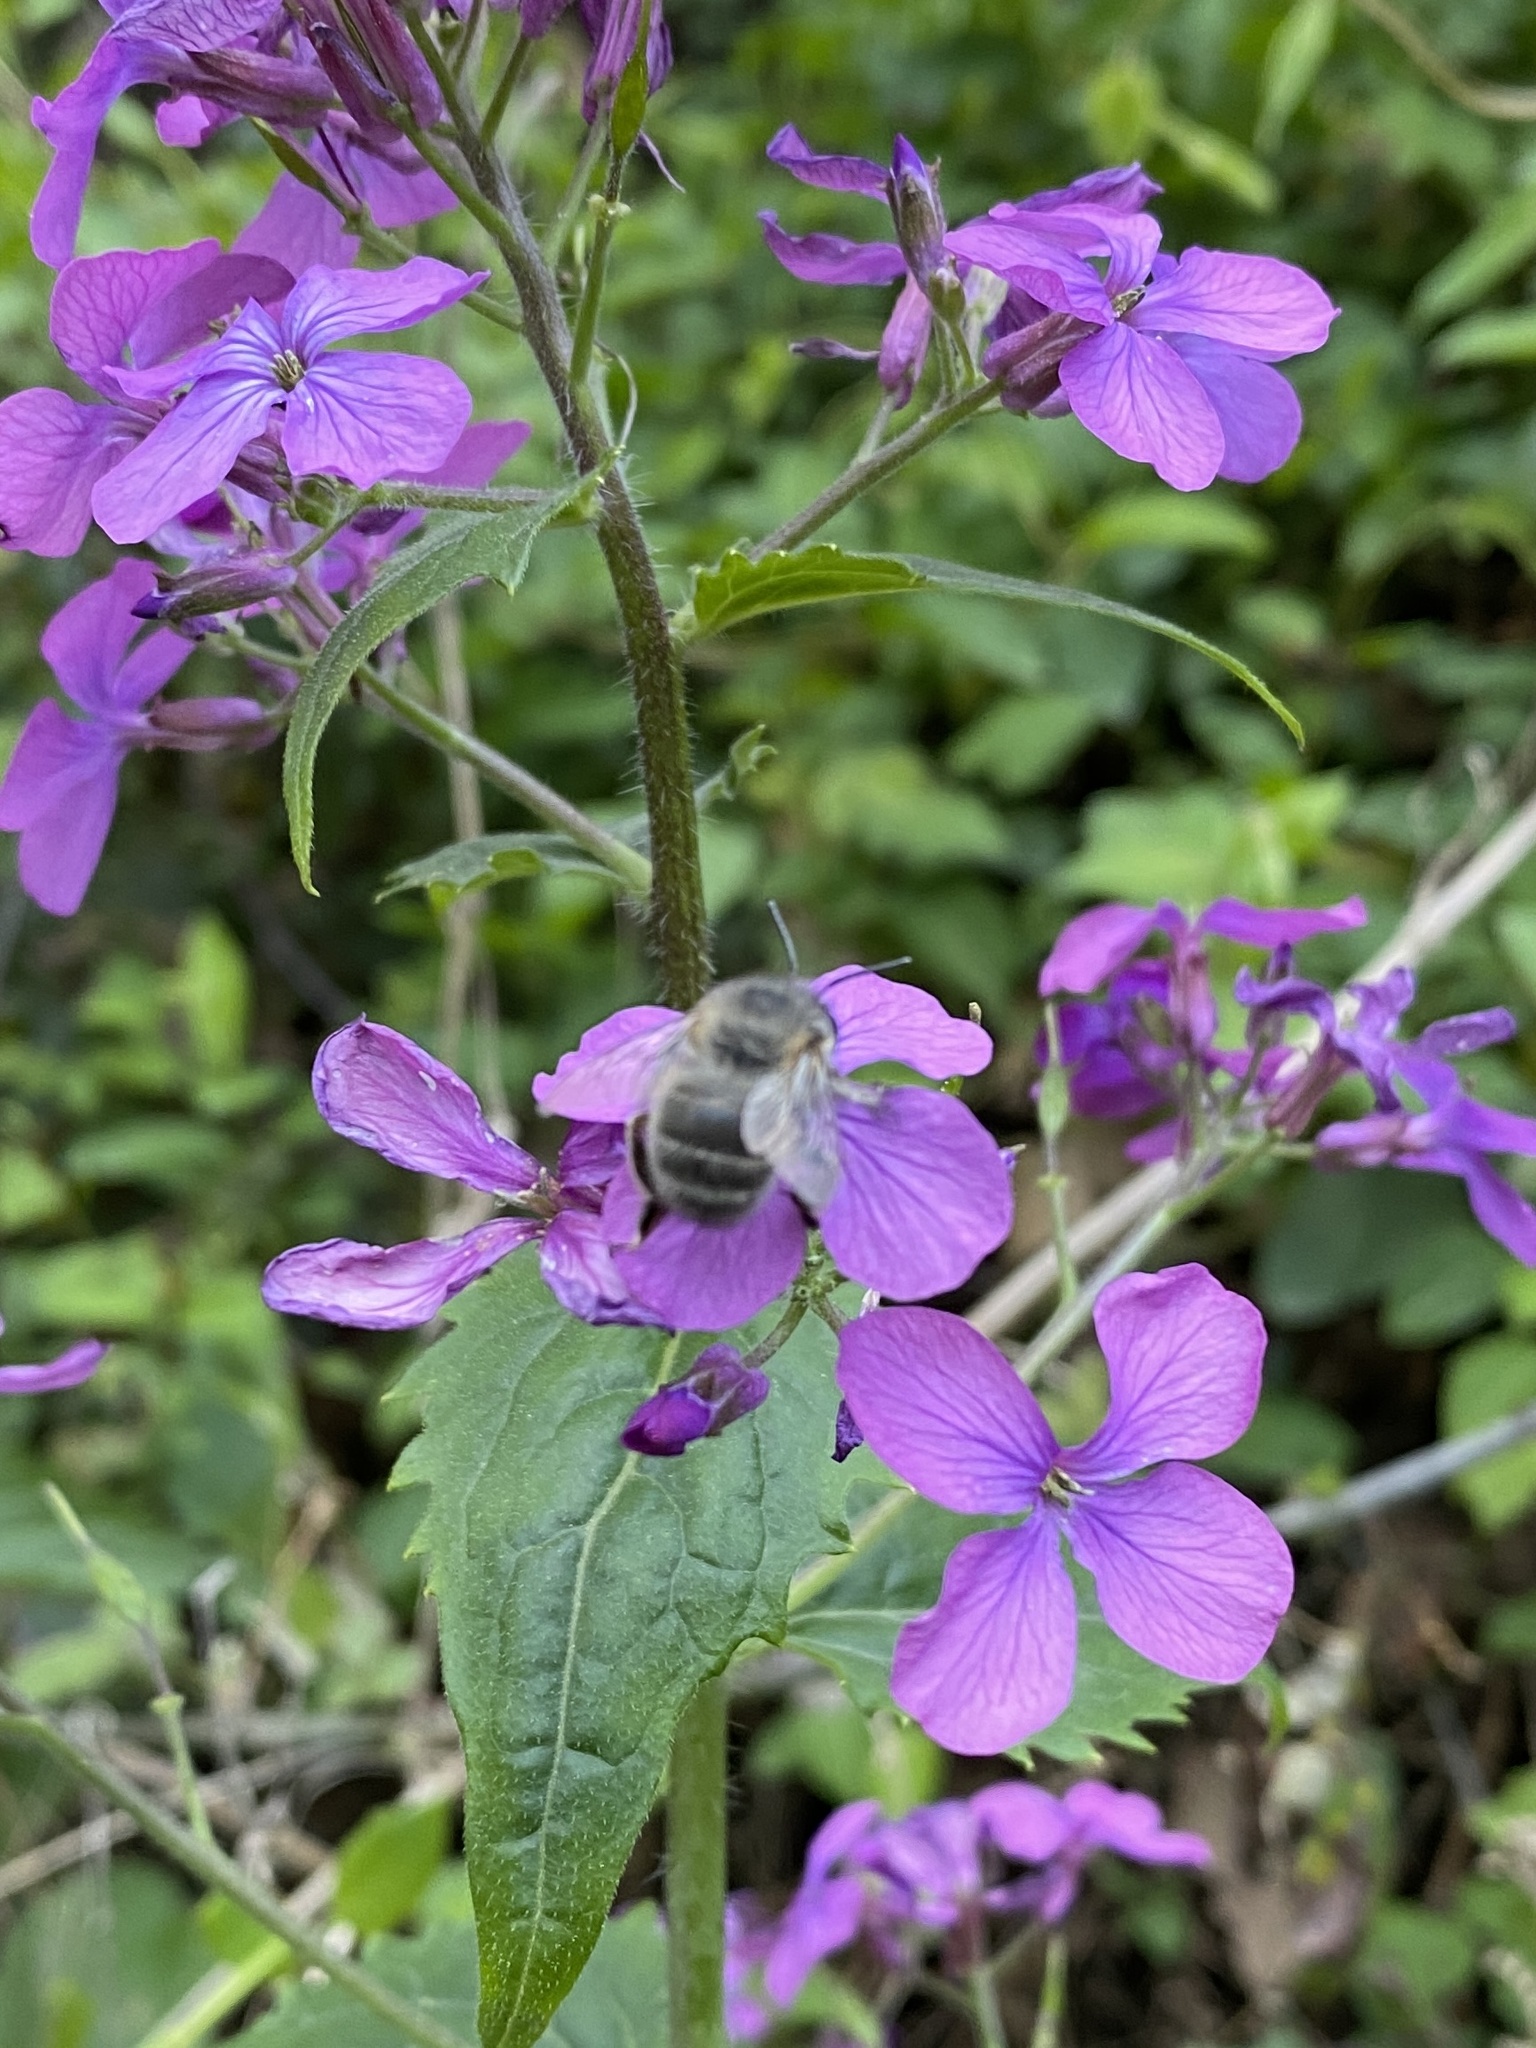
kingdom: Animalia
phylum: Arthropoda
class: Insecta
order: Hymenoptera
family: Apidae
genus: Anthophora
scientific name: Anthophora plumipes
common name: Hairy-footed flower bee
